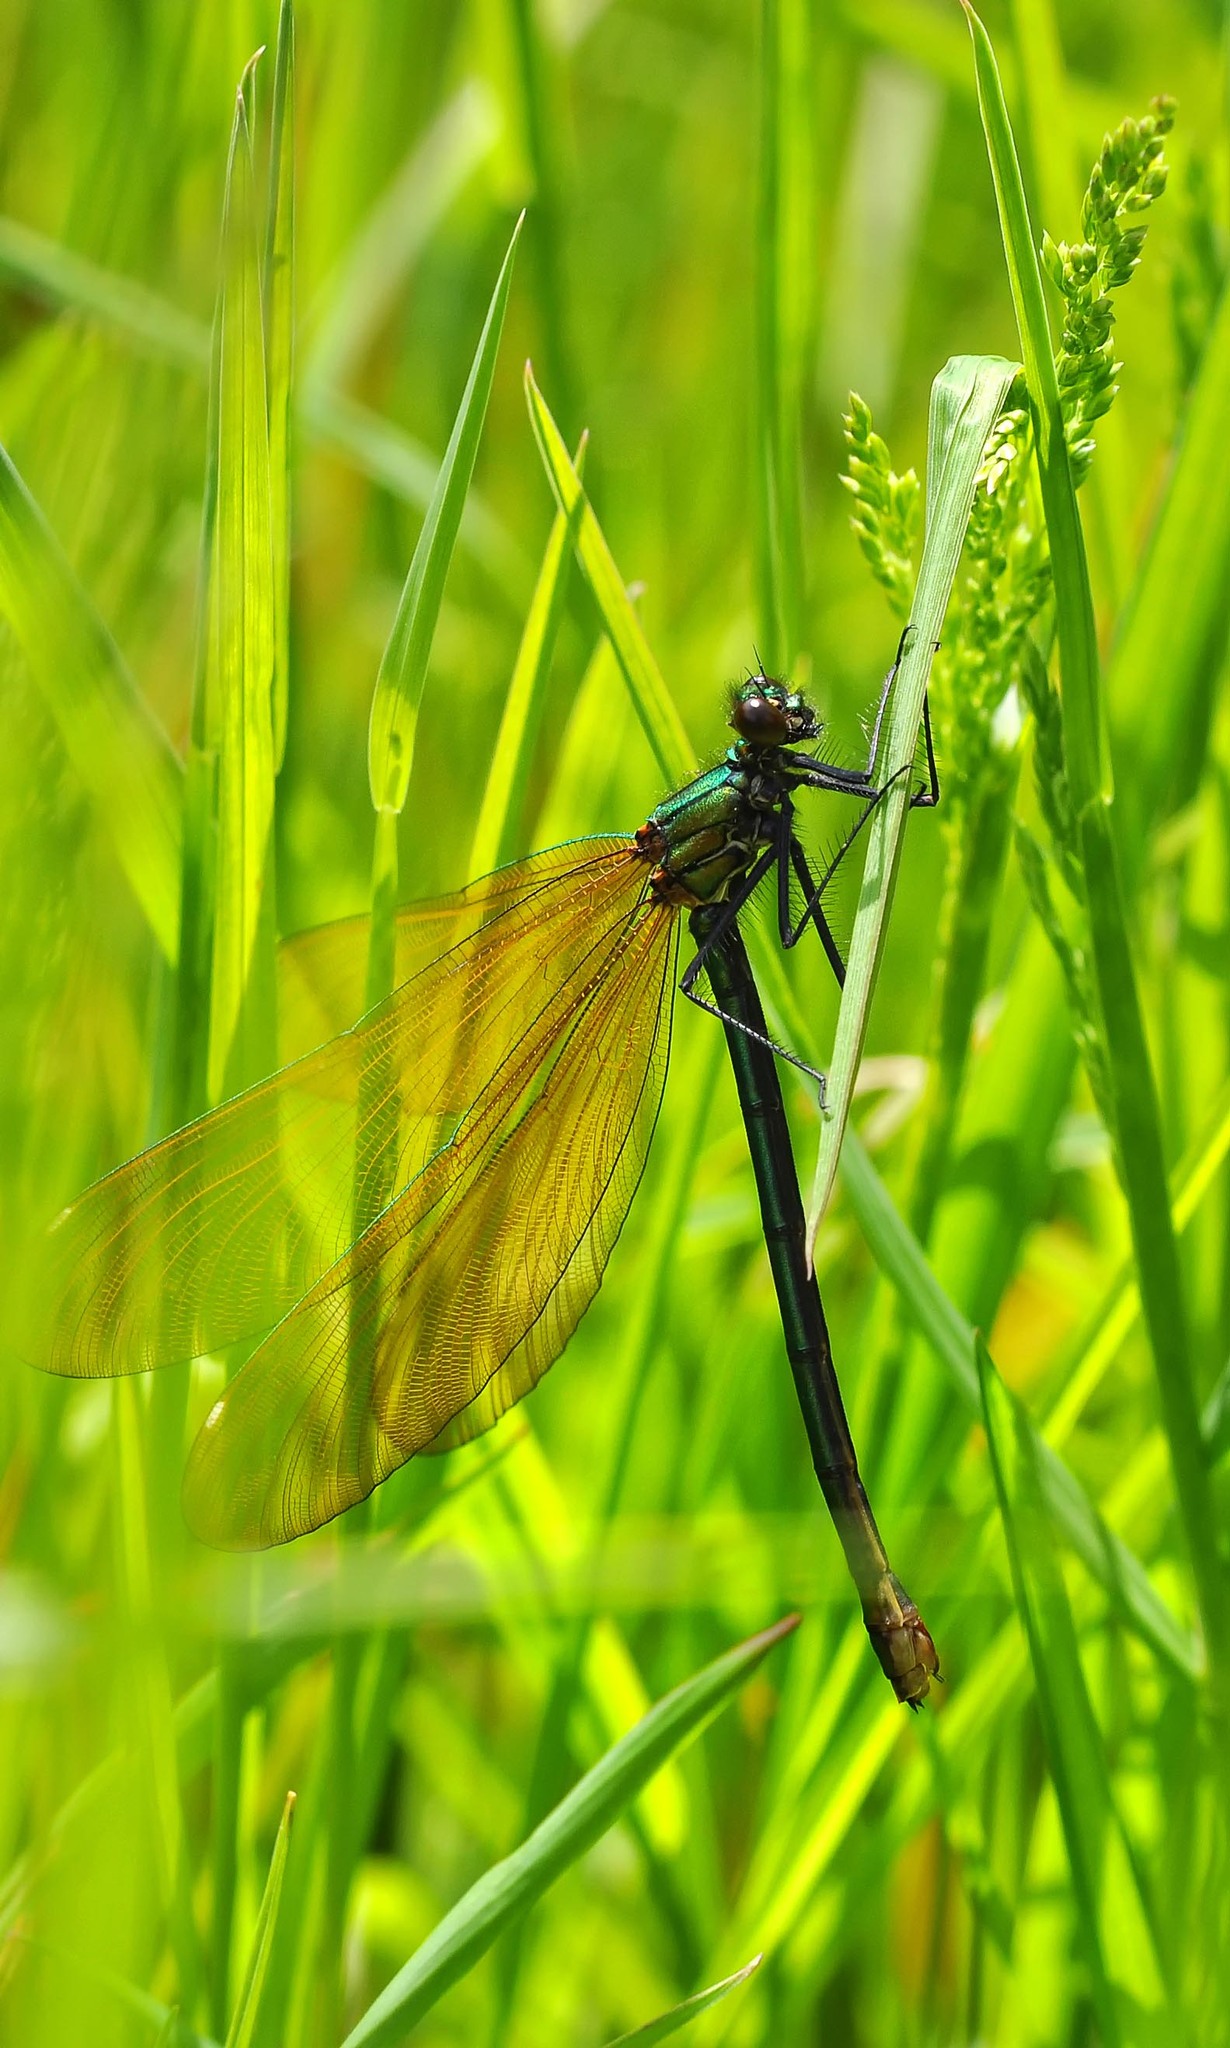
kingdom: Animalia
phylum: Arthropoda
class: Insecta
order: Odonata
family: Calopterygidae
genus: Calopteryx
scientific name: Calopteryx virgo
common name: Beautiful demoiselle
